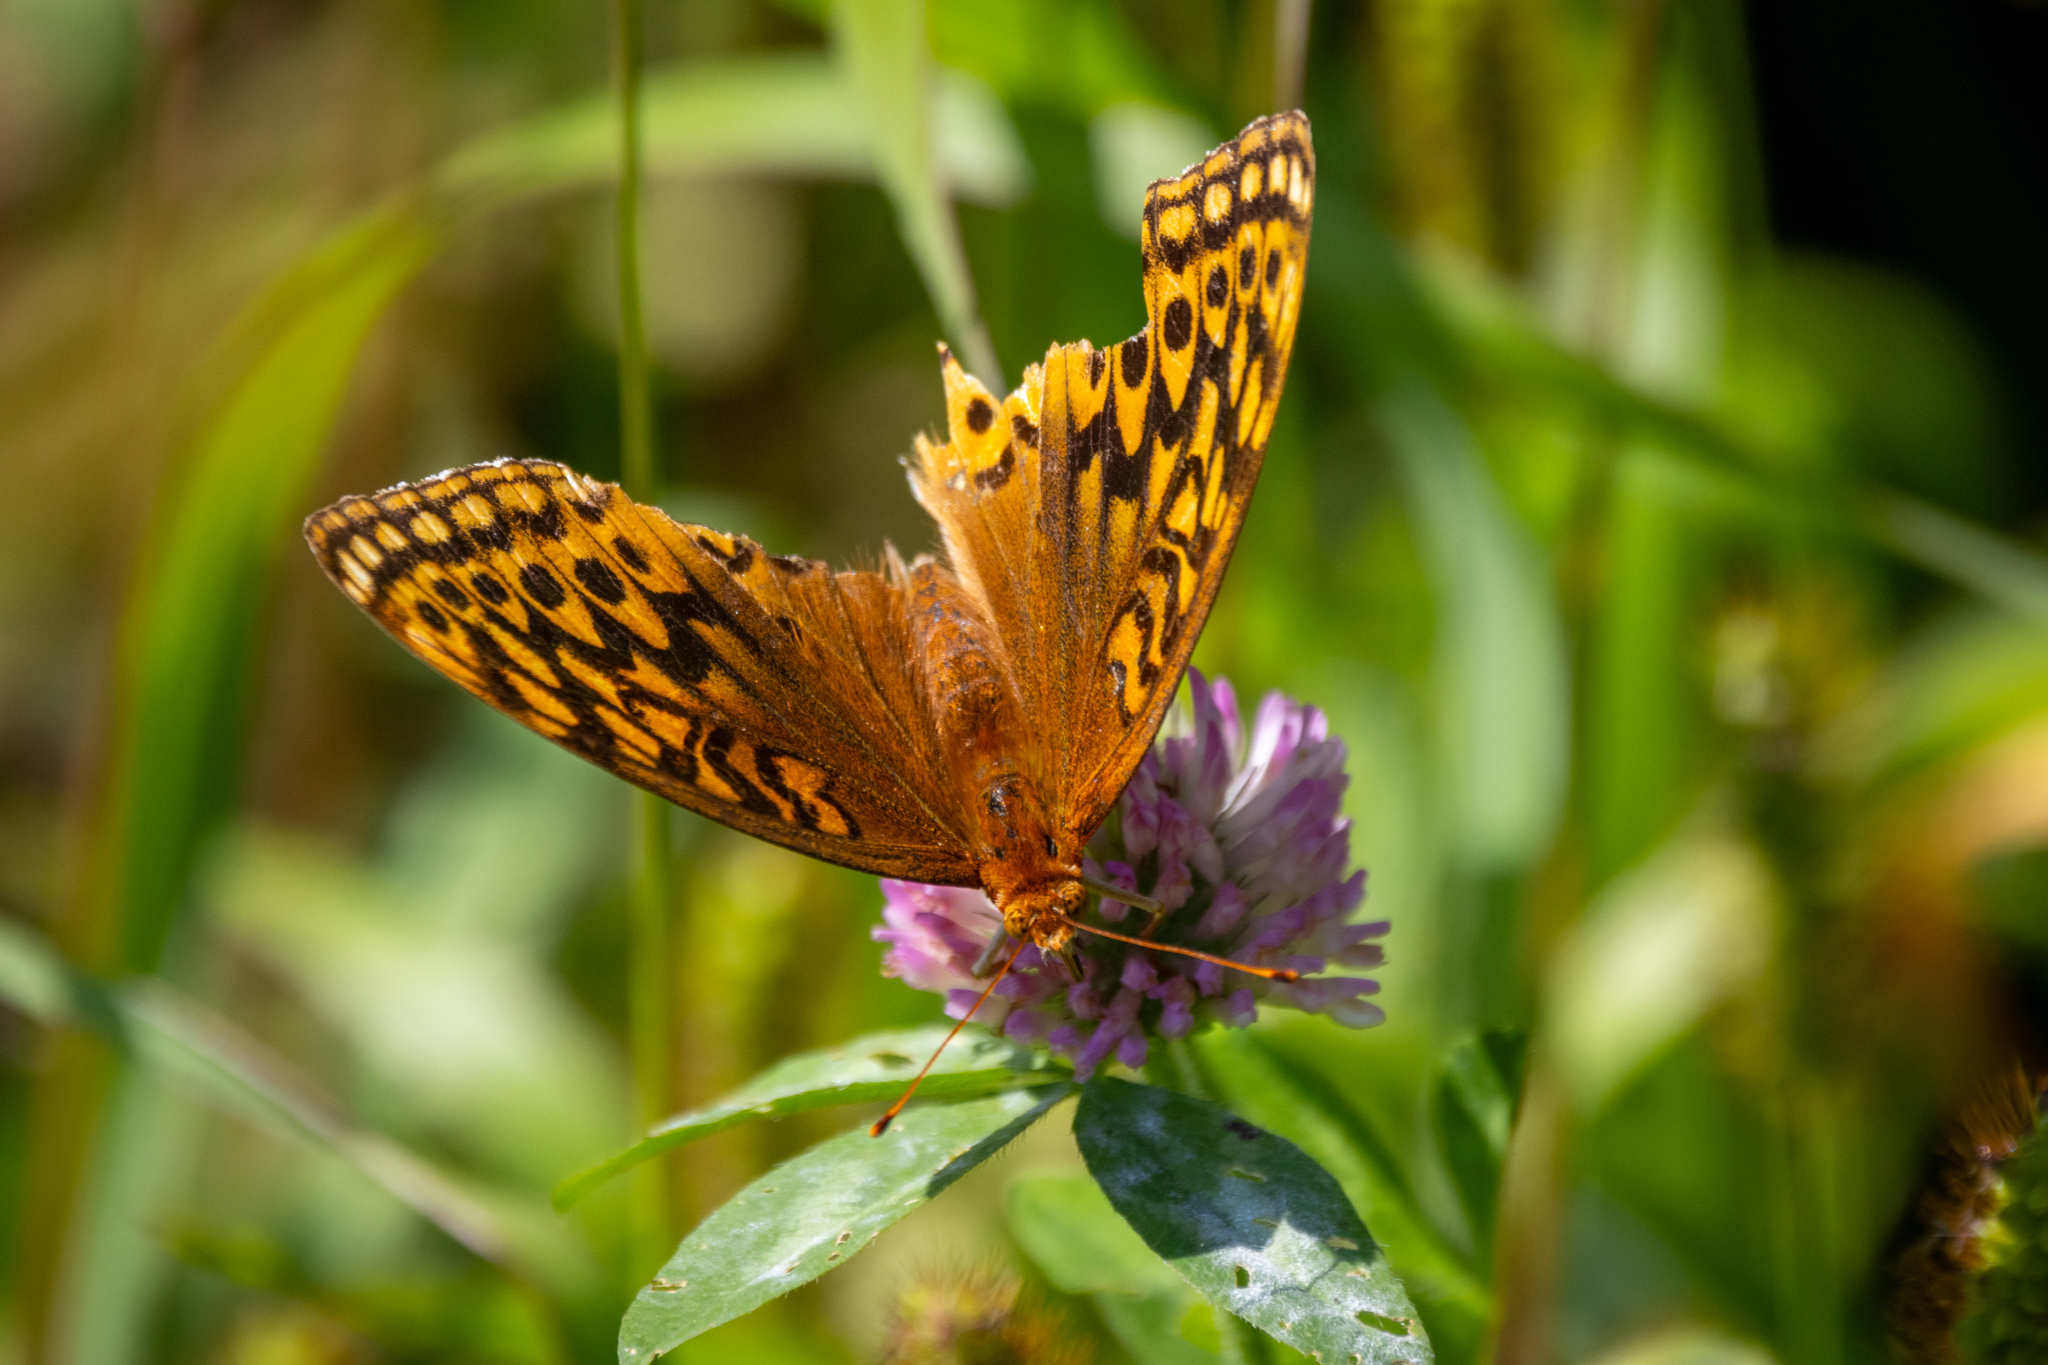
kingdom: Animalia
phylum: Arthropoda
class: Insecta
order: Lepidoptera
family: Nymphalidae
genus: Speyeria
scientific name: Speyeria cybele
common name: Great spangled fritillary
